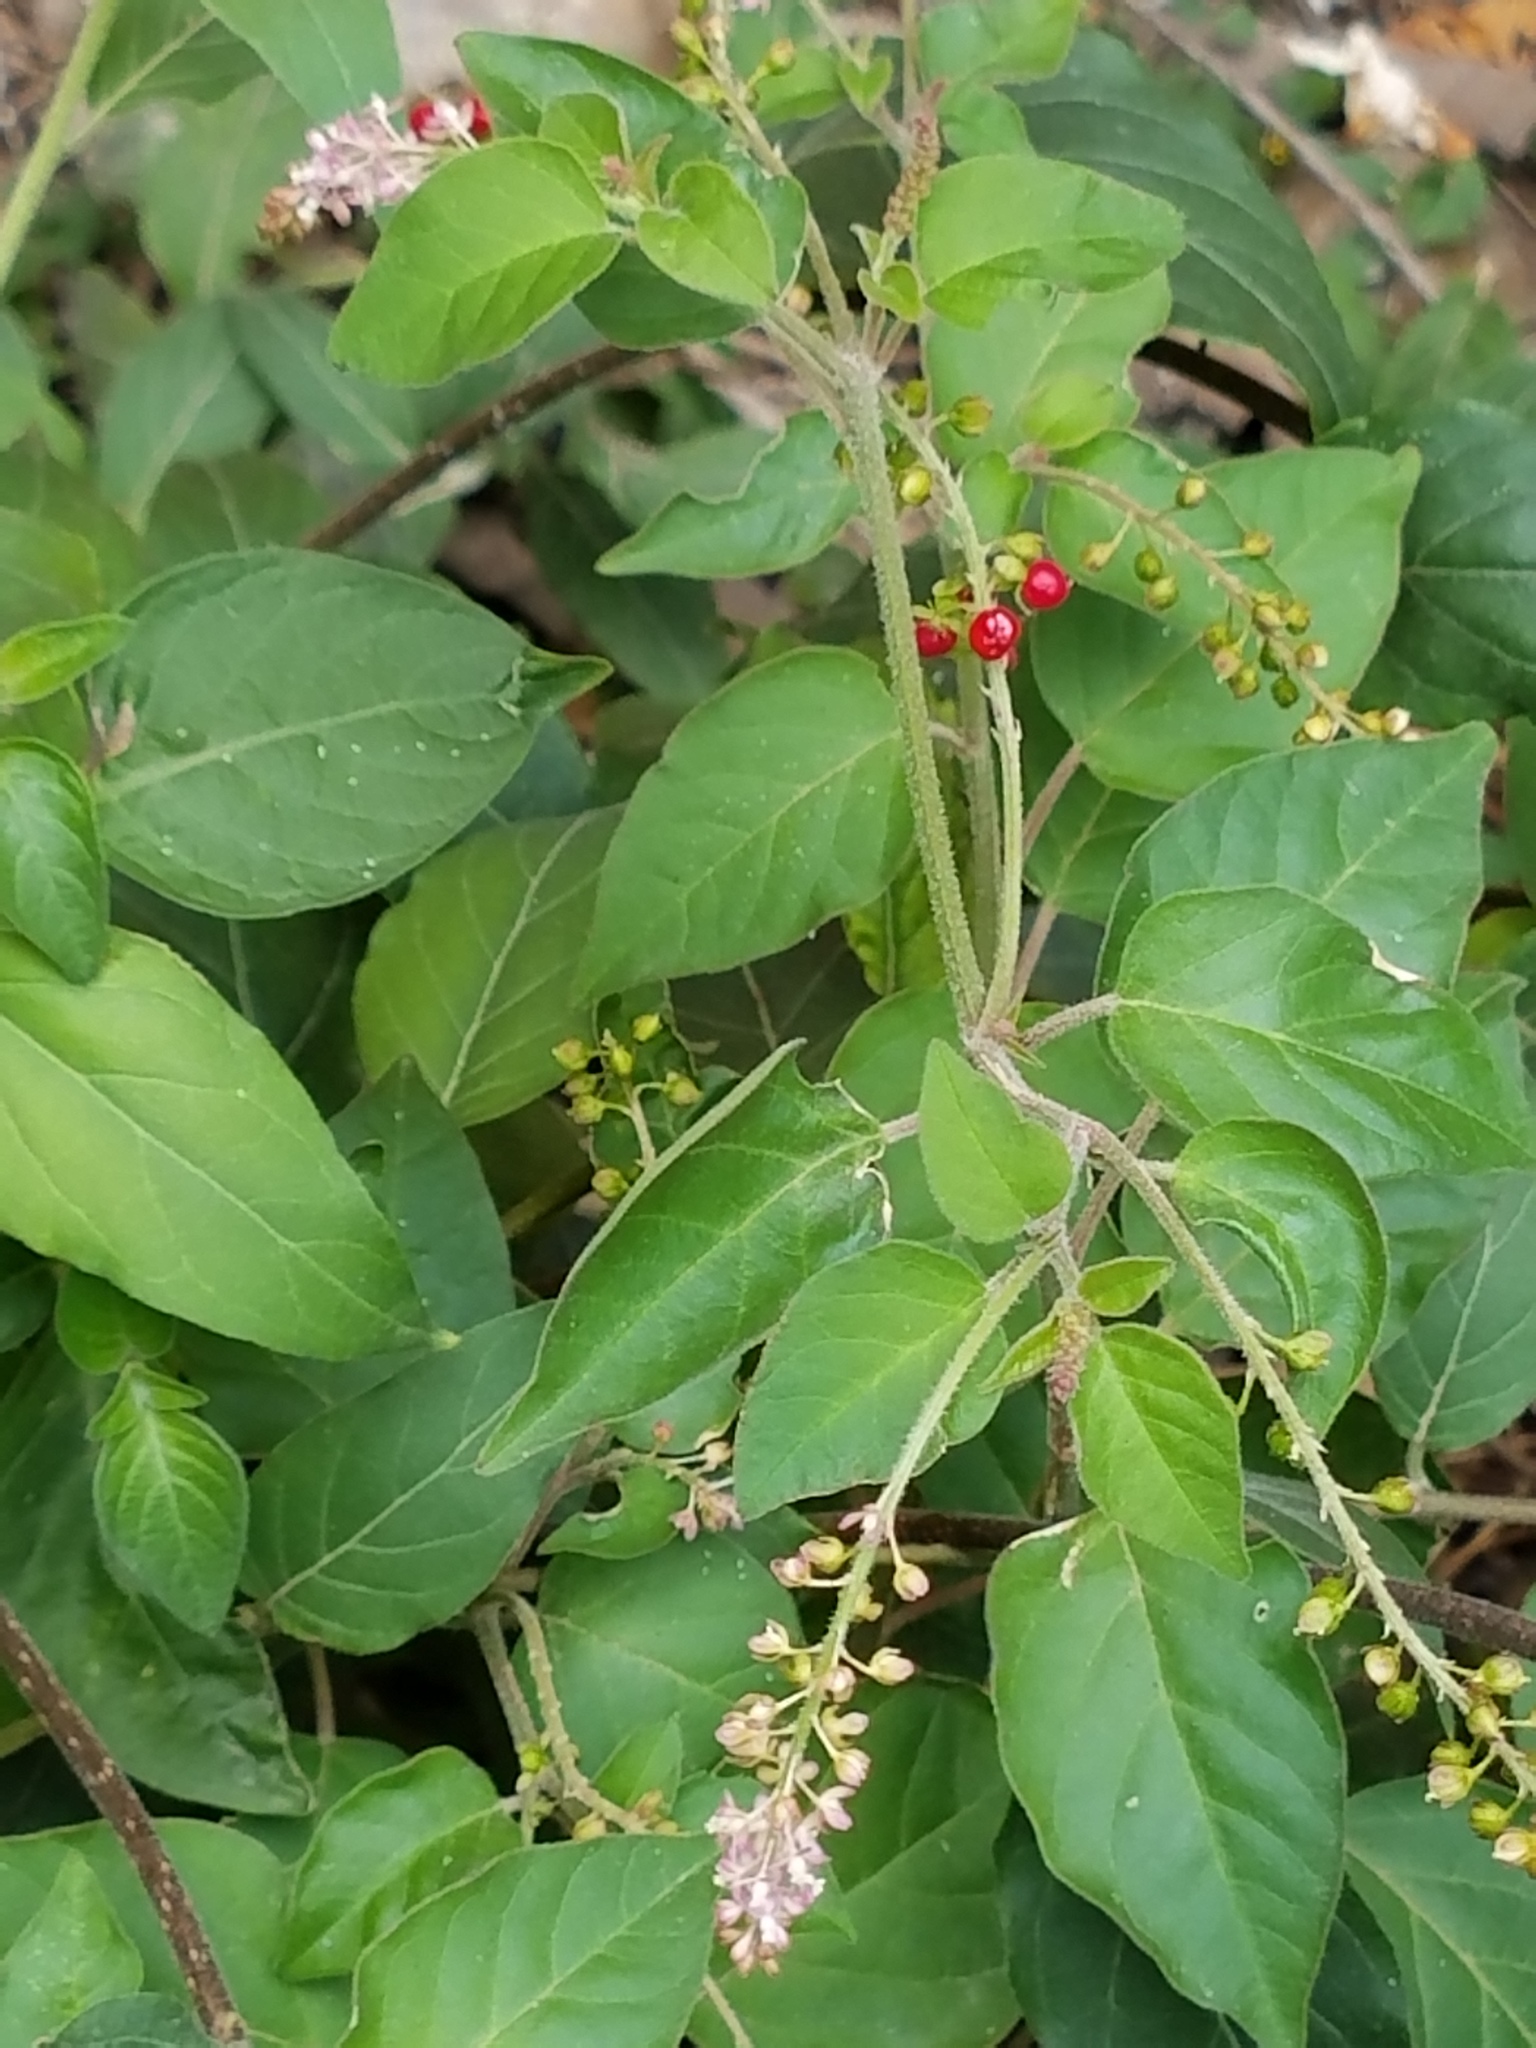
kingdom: Plantae
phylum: Tracheophyta
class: Magnoliopsida
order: Caryophyllales
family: Phytolaccaceae
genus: Rivina
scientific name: Rivina humilis
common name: Rougeplant
